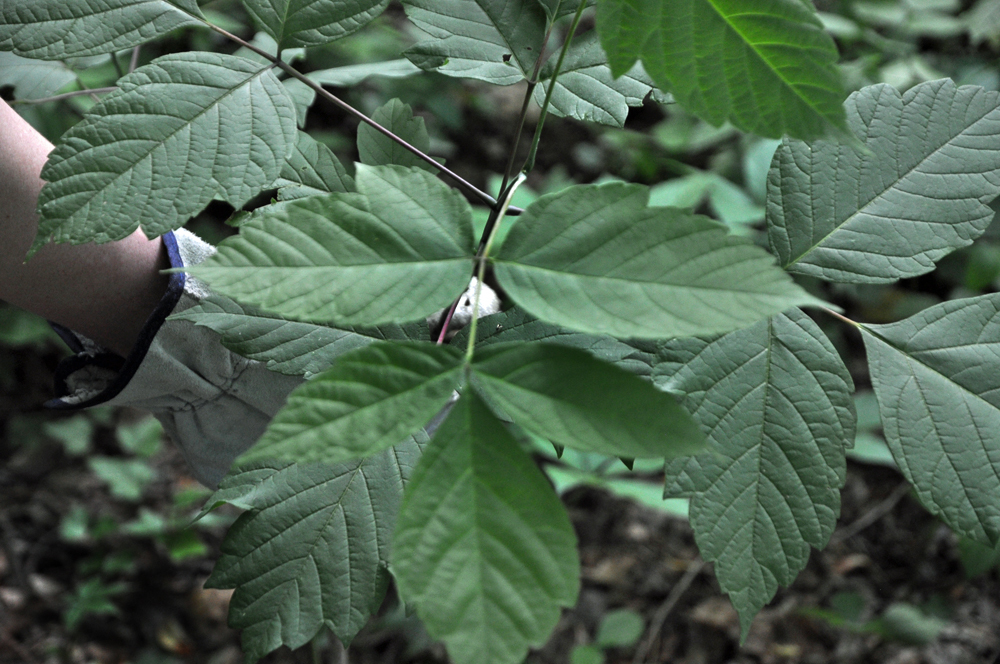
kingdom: Plantae
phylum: Tracheophyta
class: Magnoliopsida
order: Sapindales
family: Sapindaceae
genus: Acer
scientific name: Acer negundo
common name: Ashleaf maple
